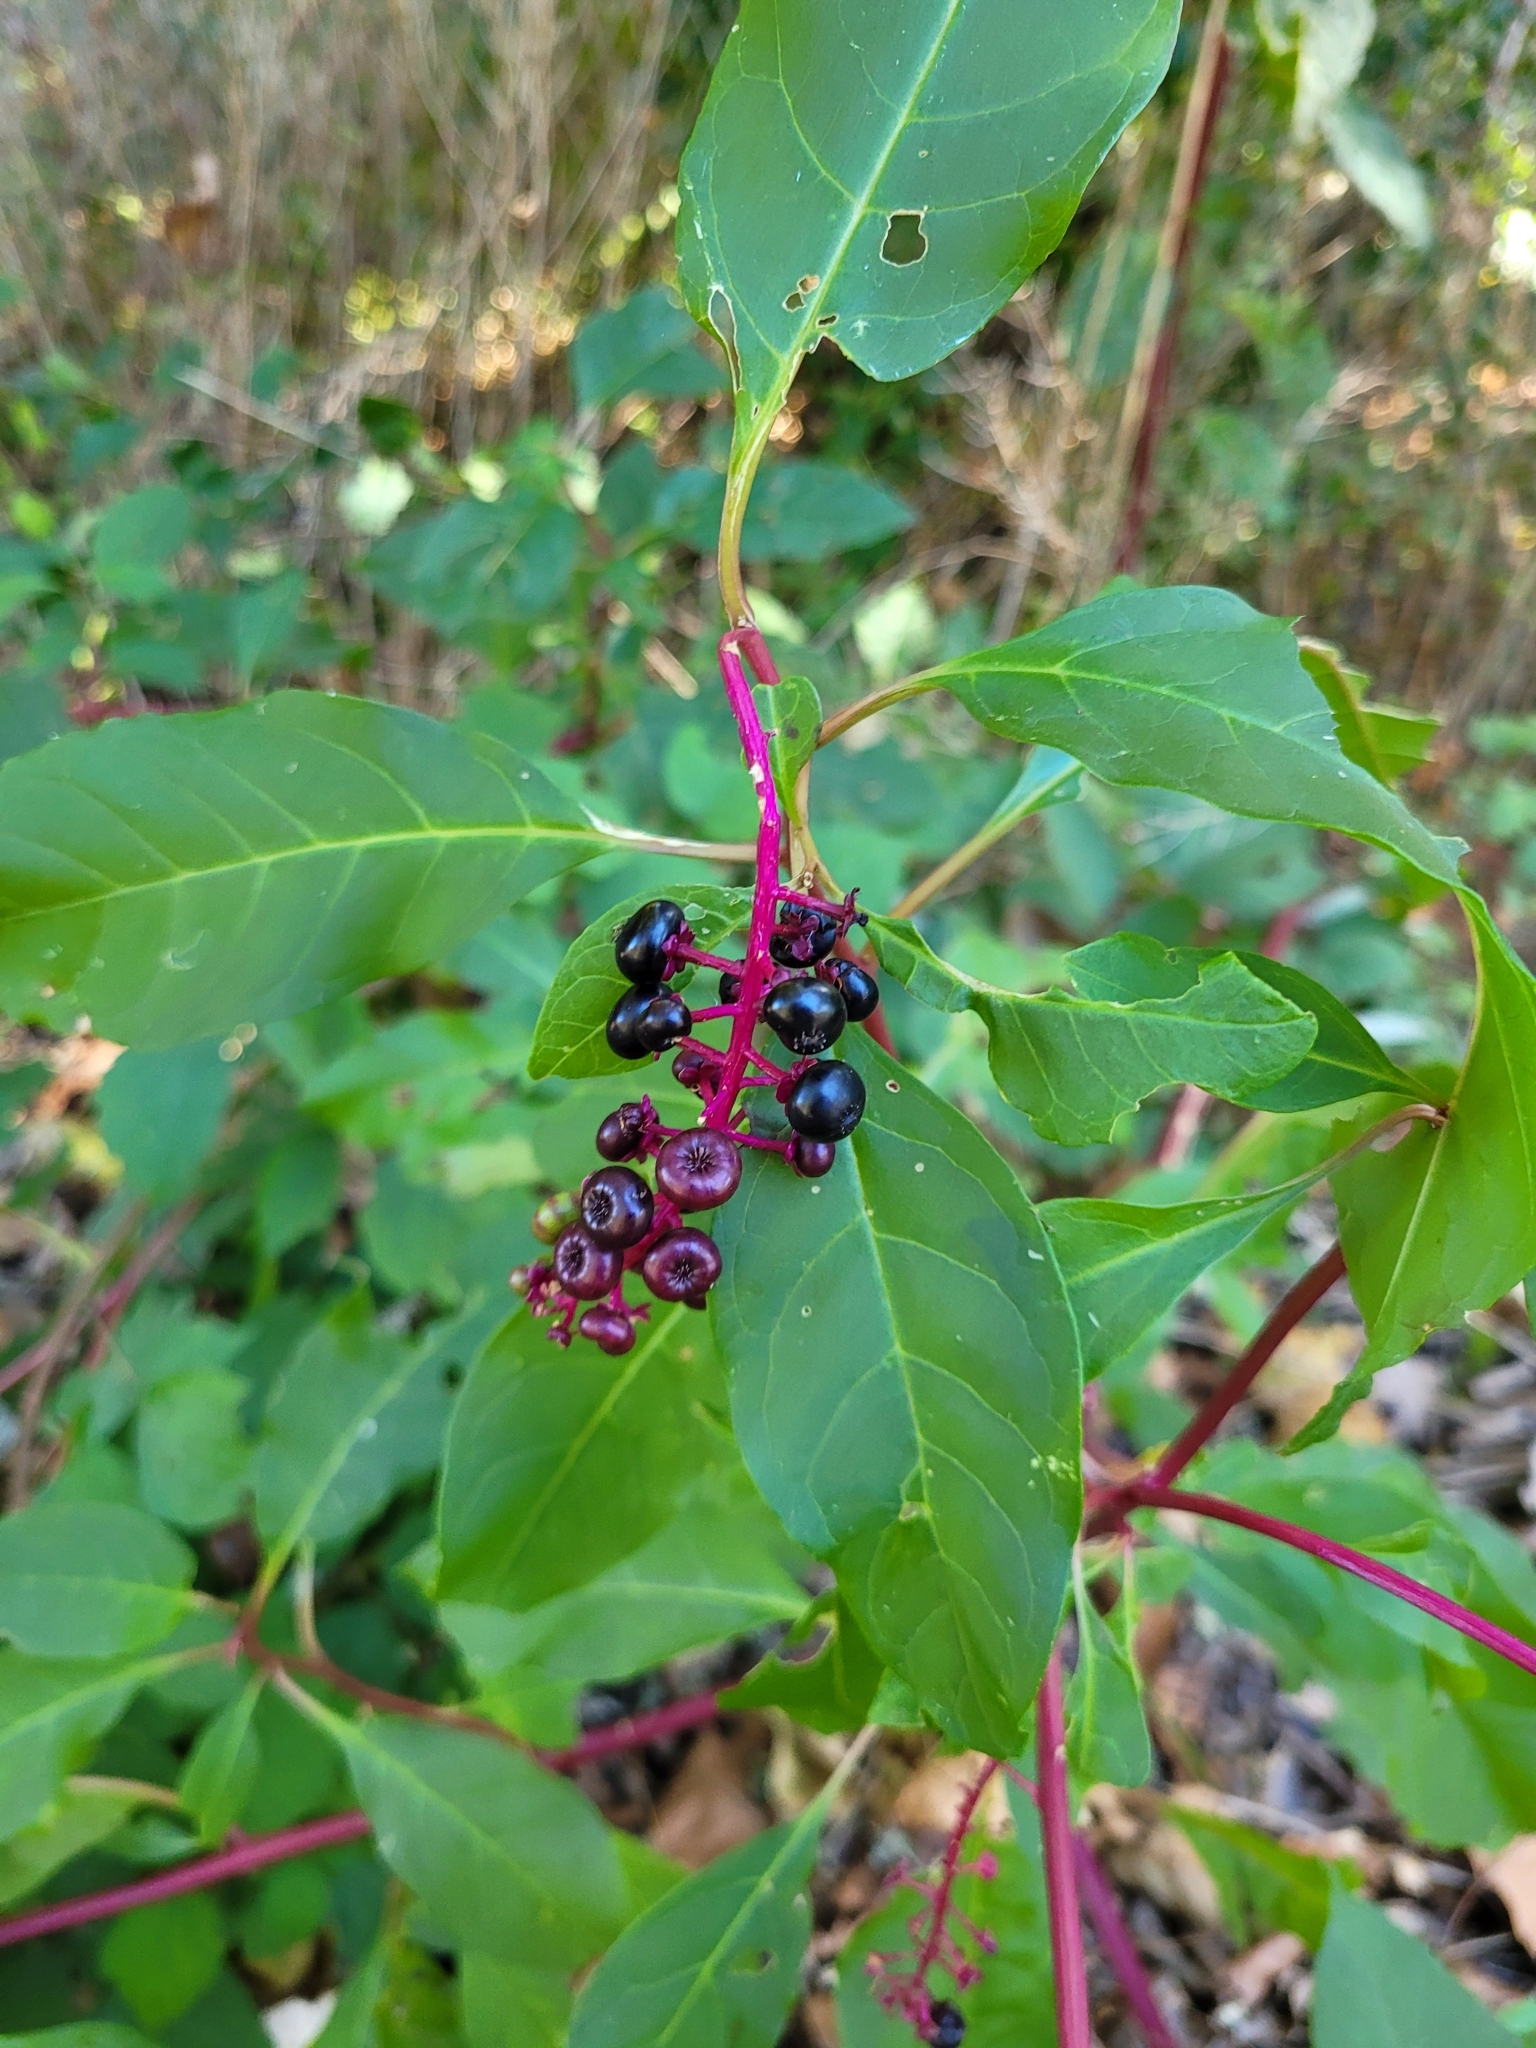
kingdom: Plantae
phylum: Tracheophyta
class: Magnoliopsida
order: Caryophyllales
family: Phytolaccaceae
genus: Phytolacca
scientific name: Phytolacca americana
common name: American pokeweed
